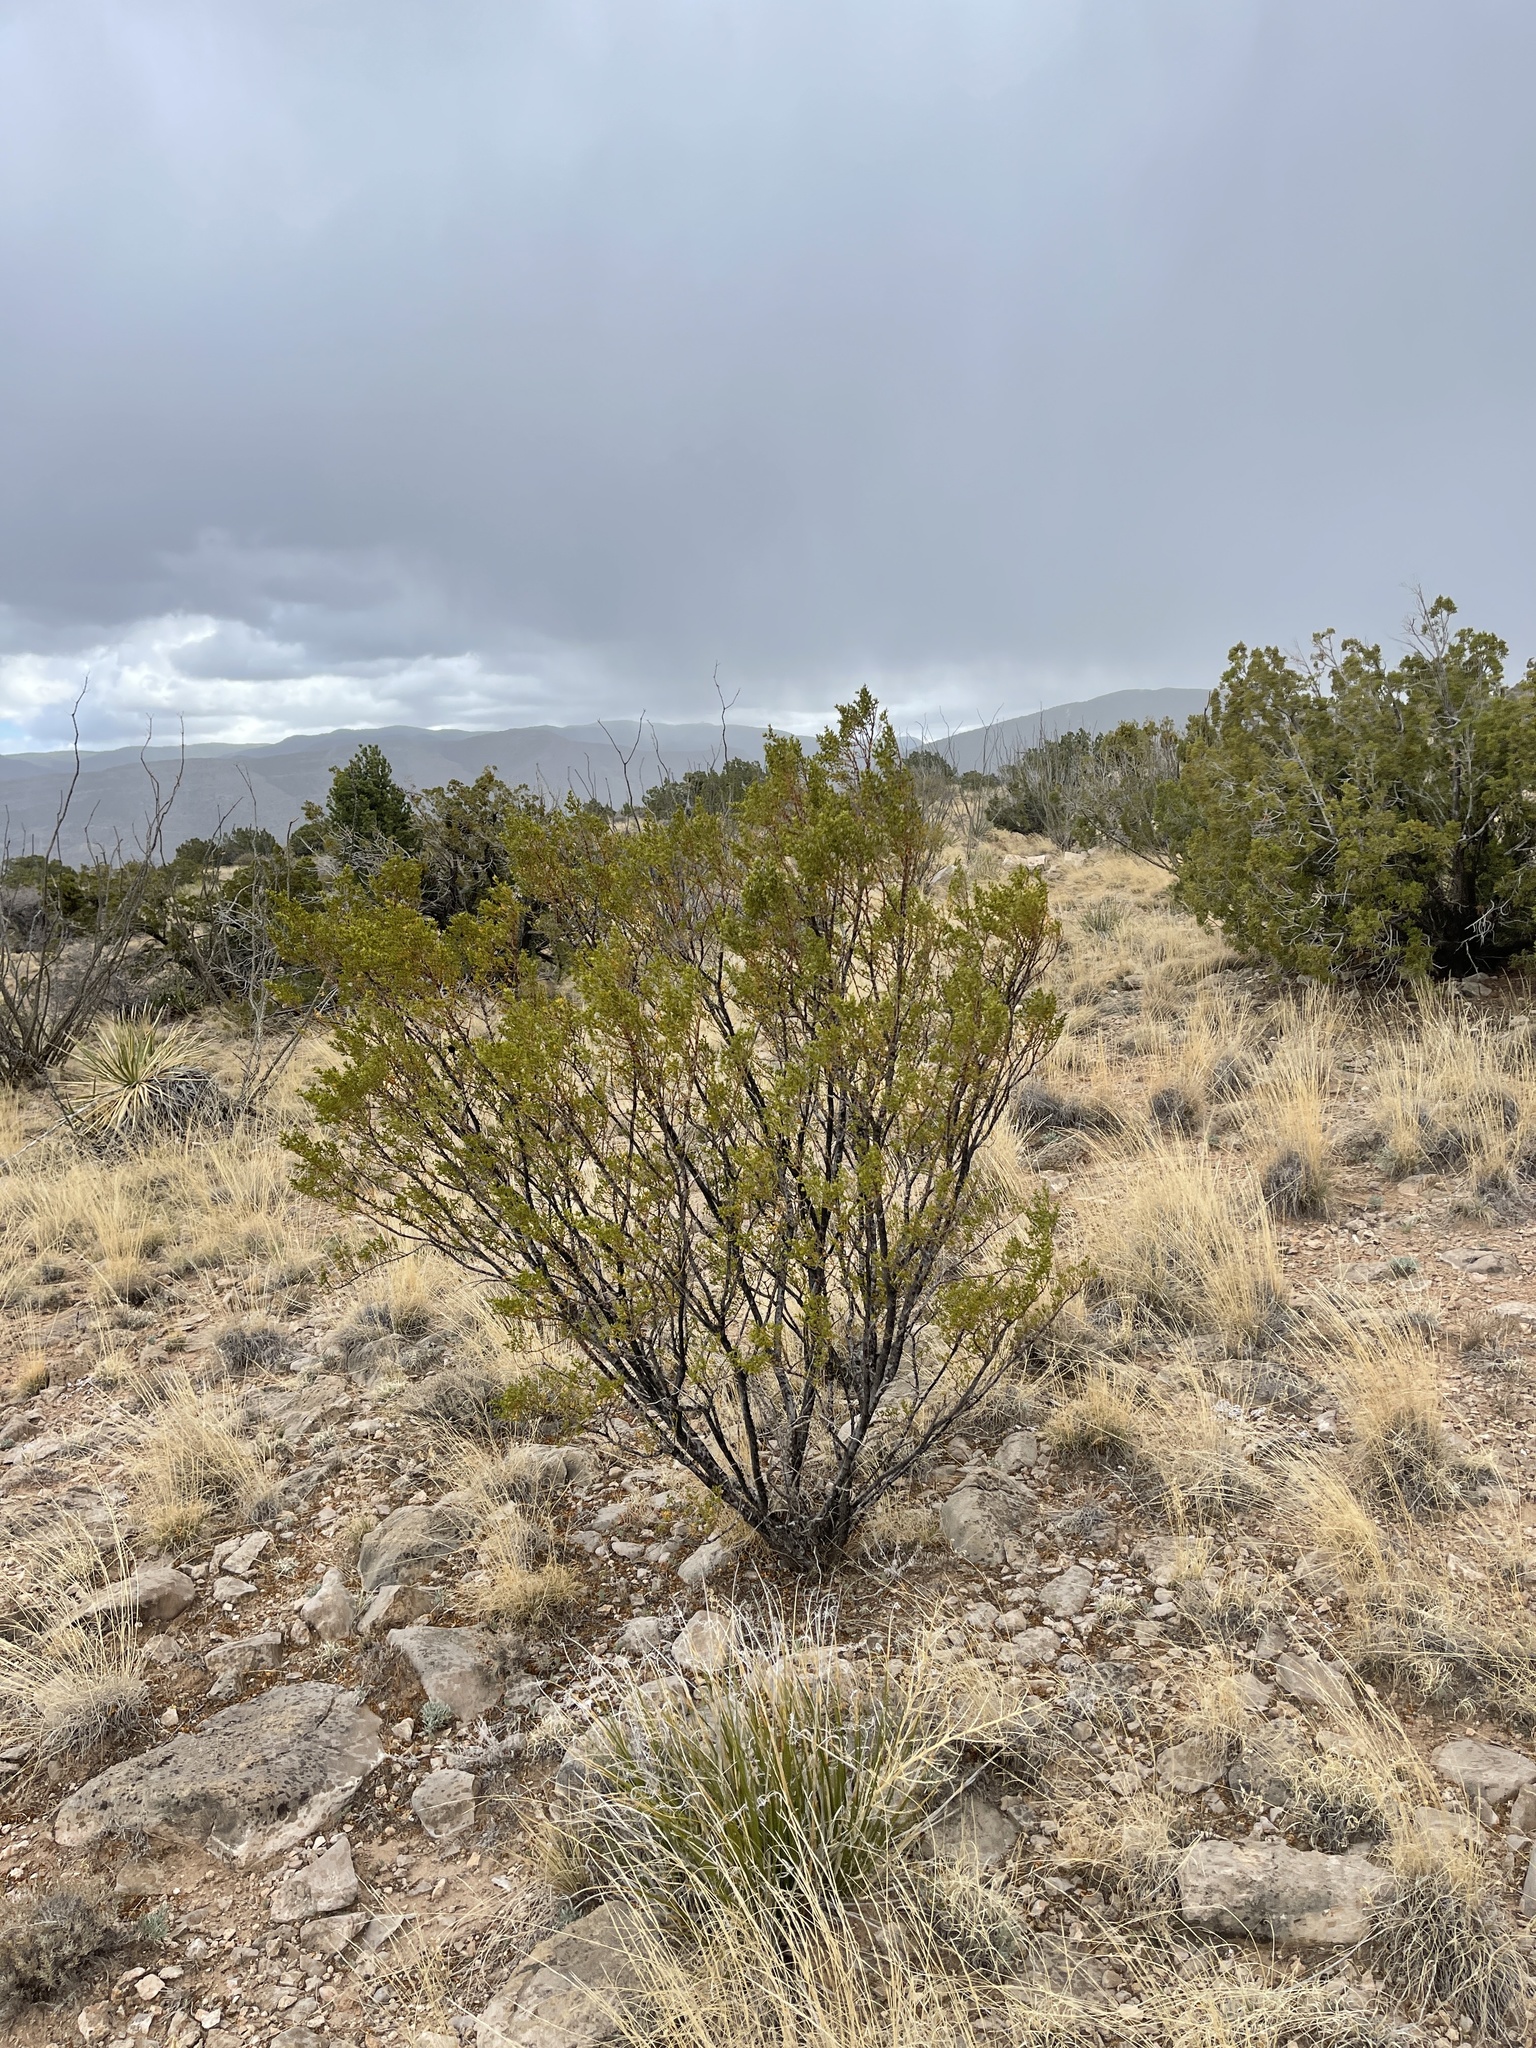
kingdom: Plantae
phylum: Tracheophyta
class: Magnoliopsida
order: Zygophyllales
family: Zygophyllaceae
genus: Larrea
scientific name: Larrea tridentata
